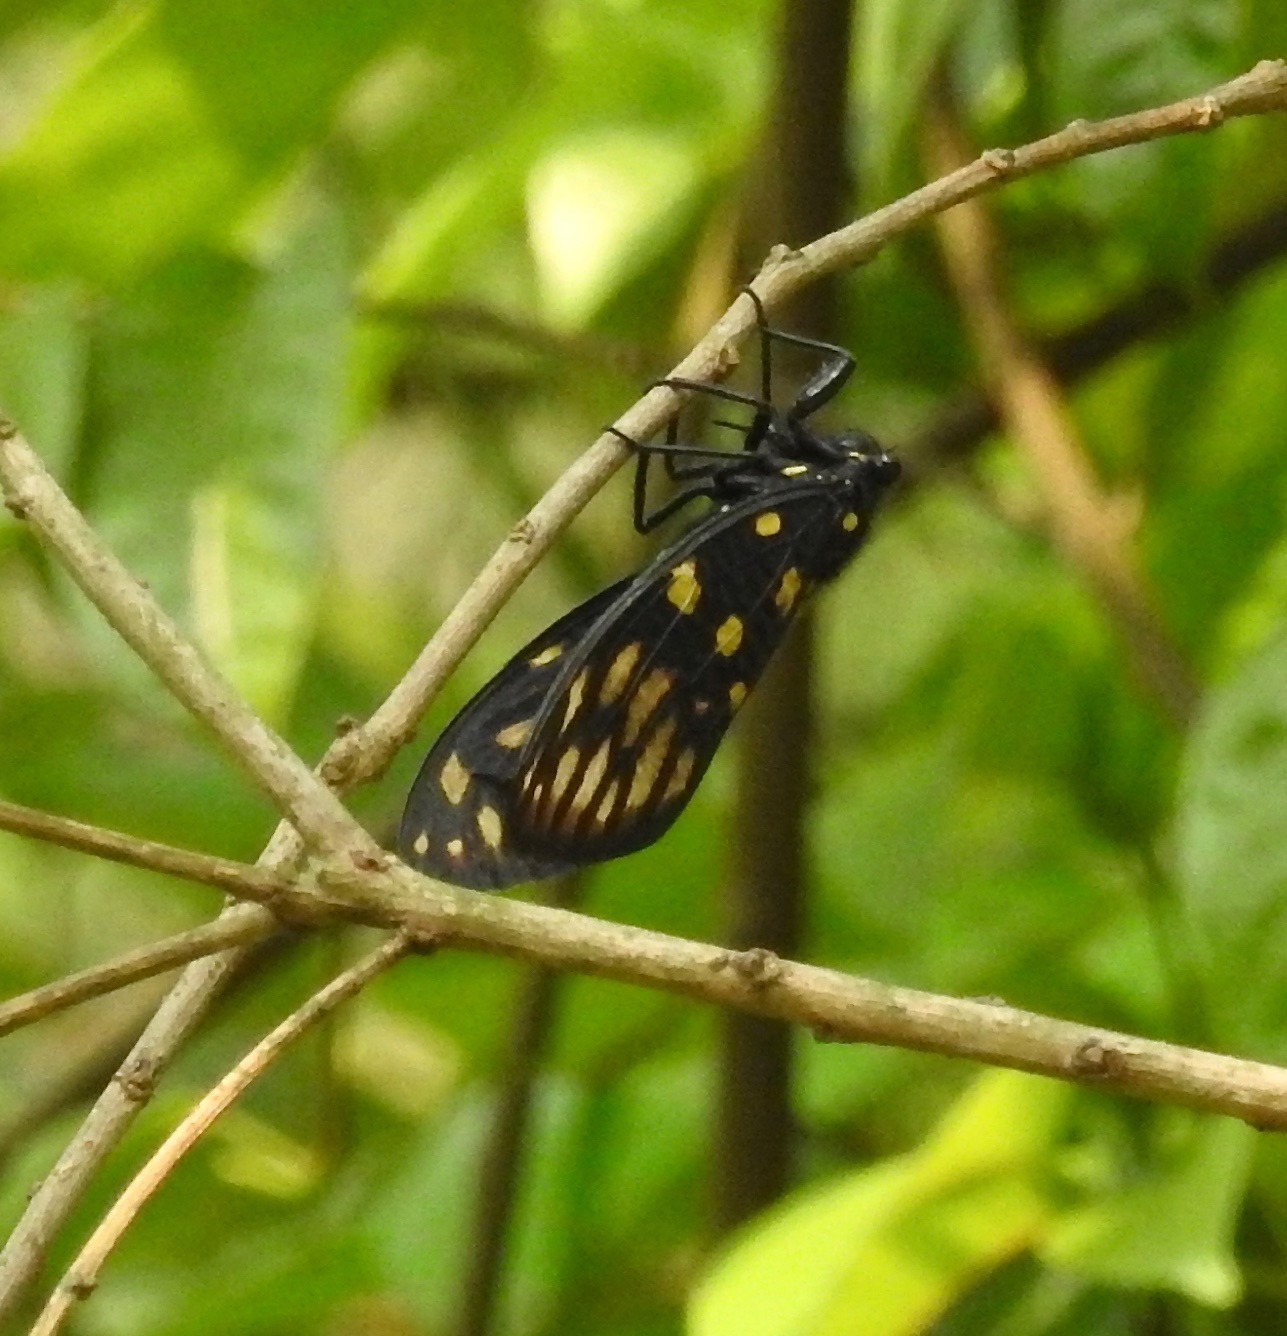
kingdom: Animalia
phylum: Arthropoda
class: Insecta
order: Hemiptera
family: Cicadidae
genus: Gaeana
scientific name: Gaeana maculata
